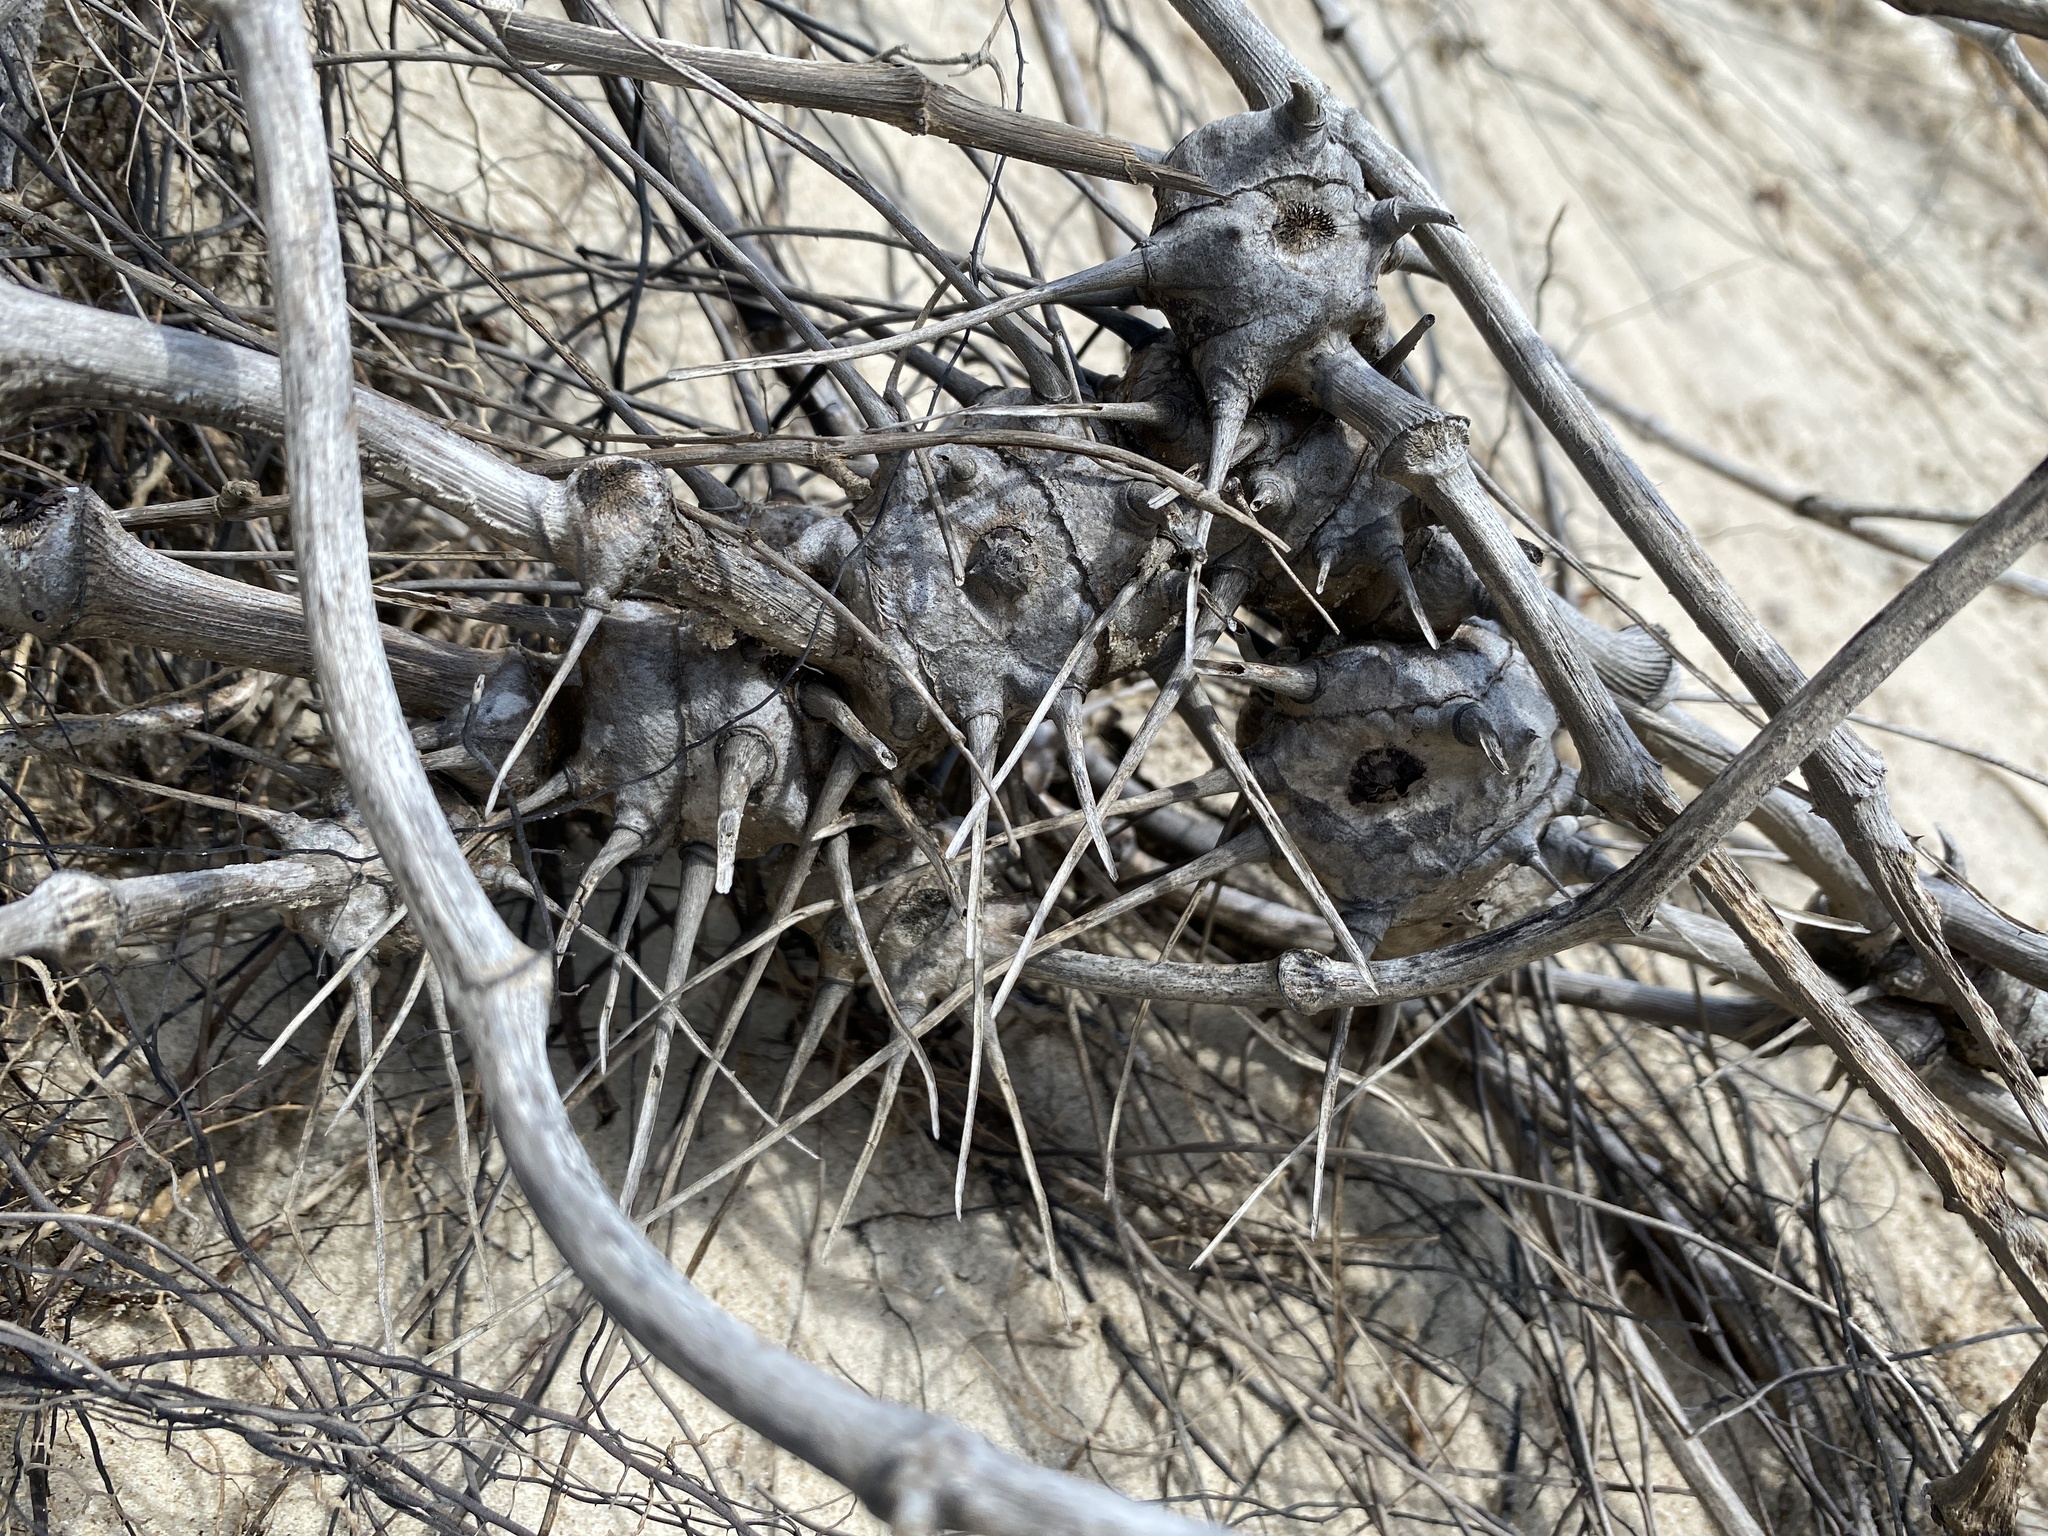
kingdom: Plantae
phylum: Tracheophyta
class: Liliopsida
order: Liliales
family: Smilacaceae
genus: Smilax
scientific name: Smilax bona-nox
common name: Catbrier
